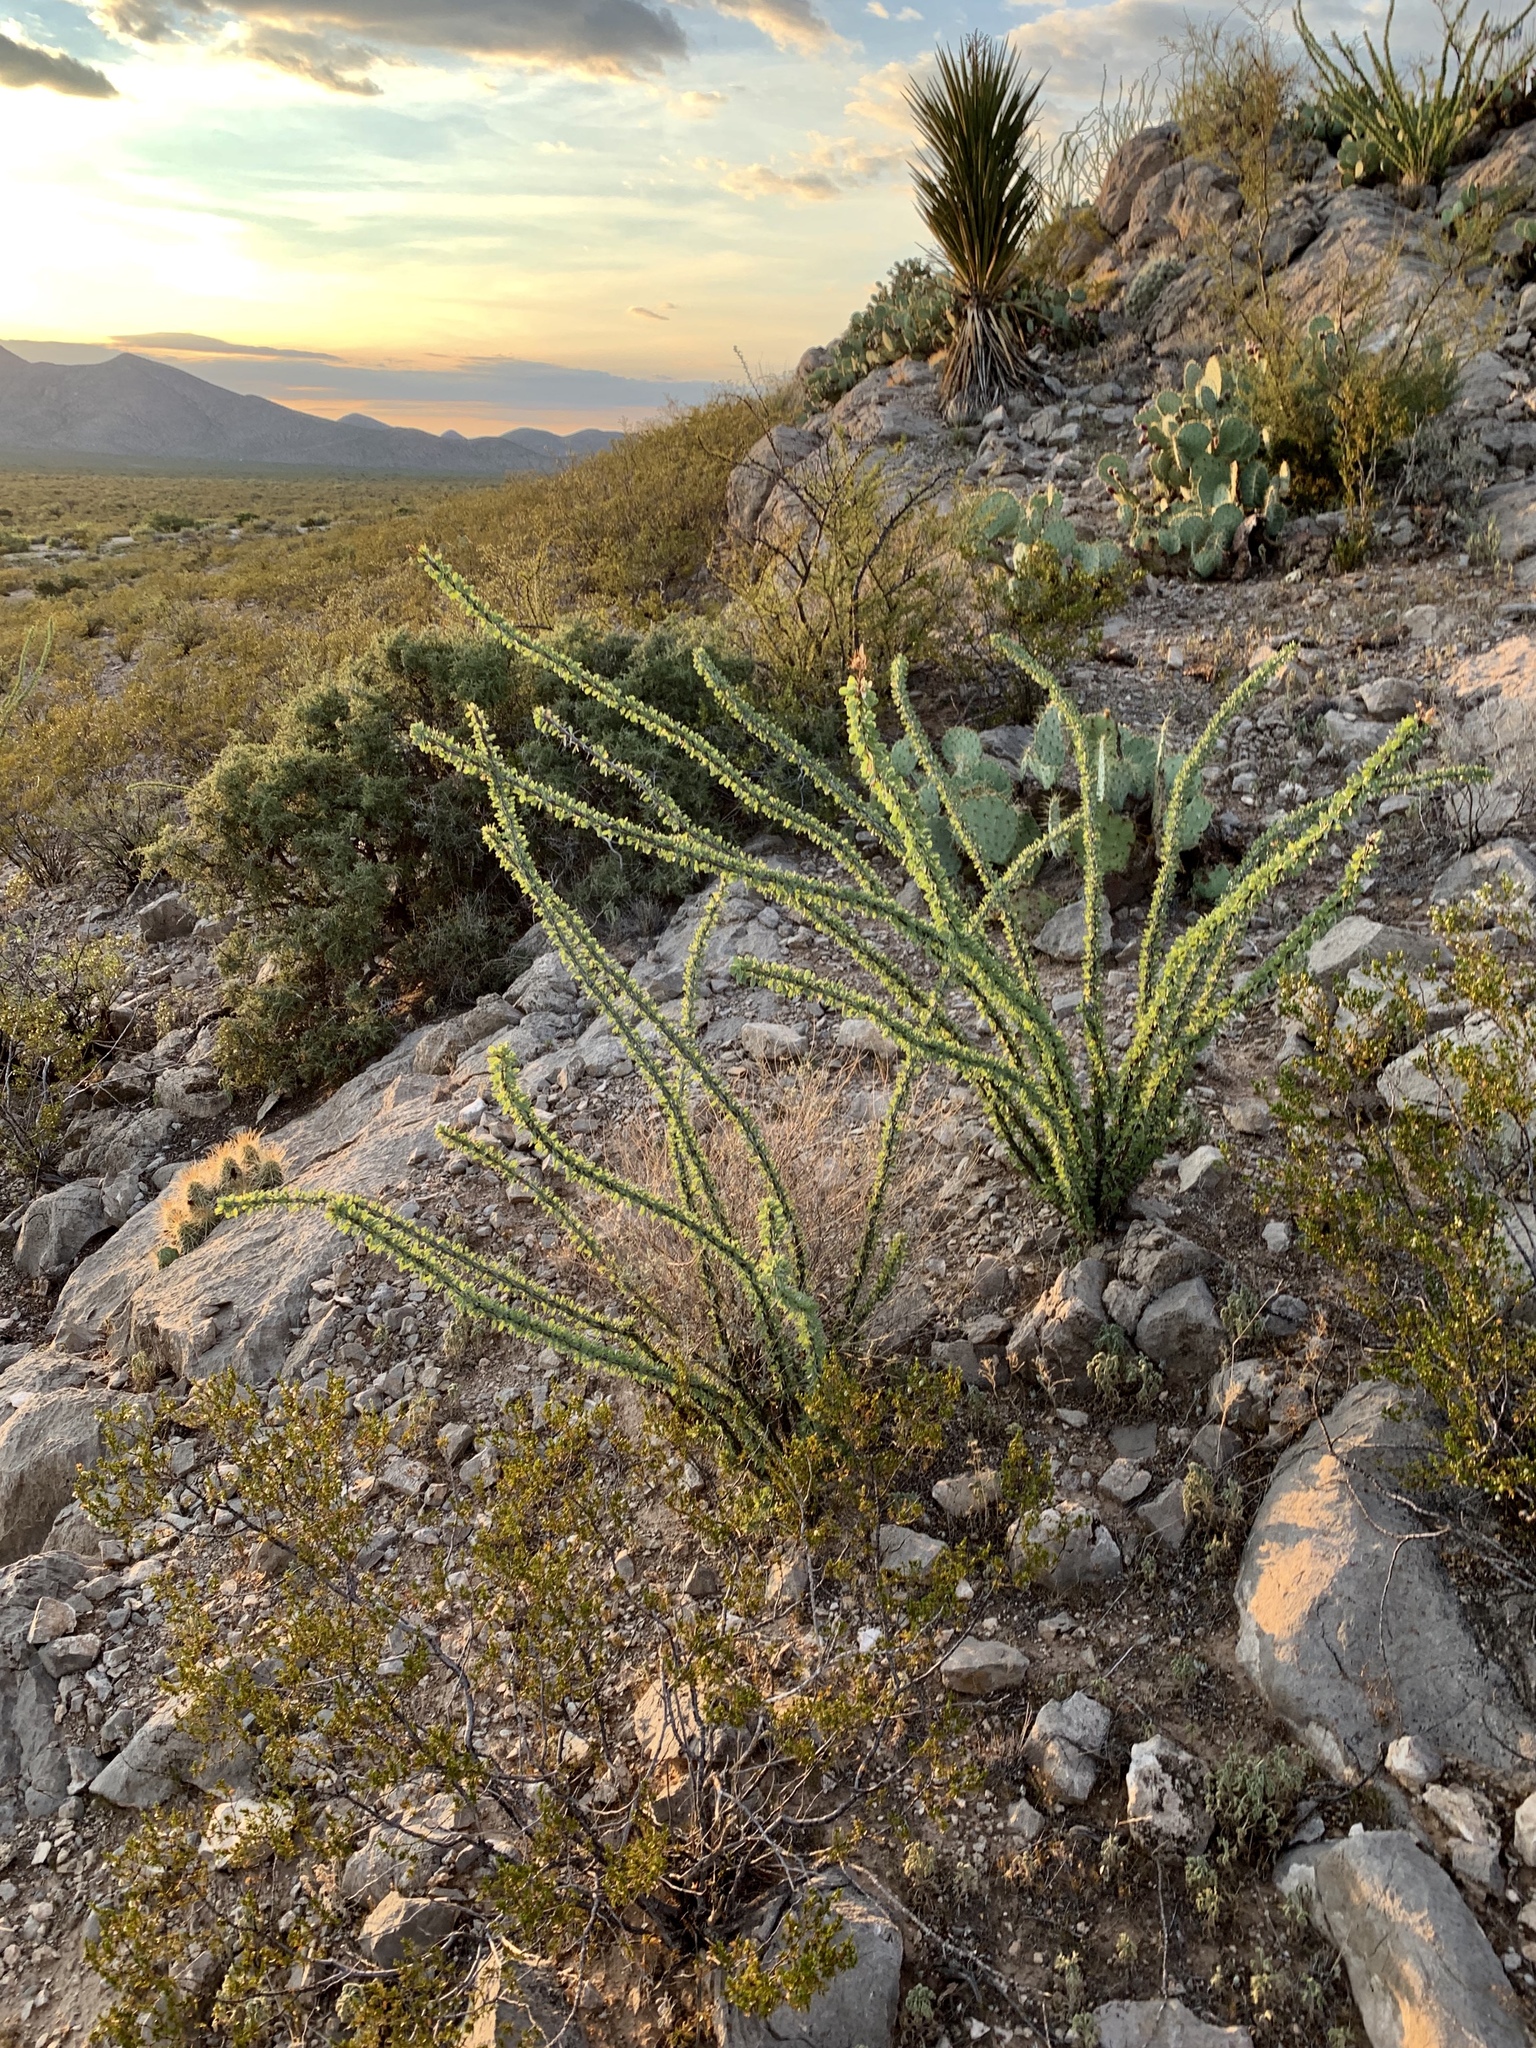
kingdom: Plantae
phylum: Tracheophyta
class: Magnoliopsida
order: Ericales
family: Fouquieriaceae
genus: Fouquieria
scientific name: Fouquieria splendens
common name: Vine-cactus
